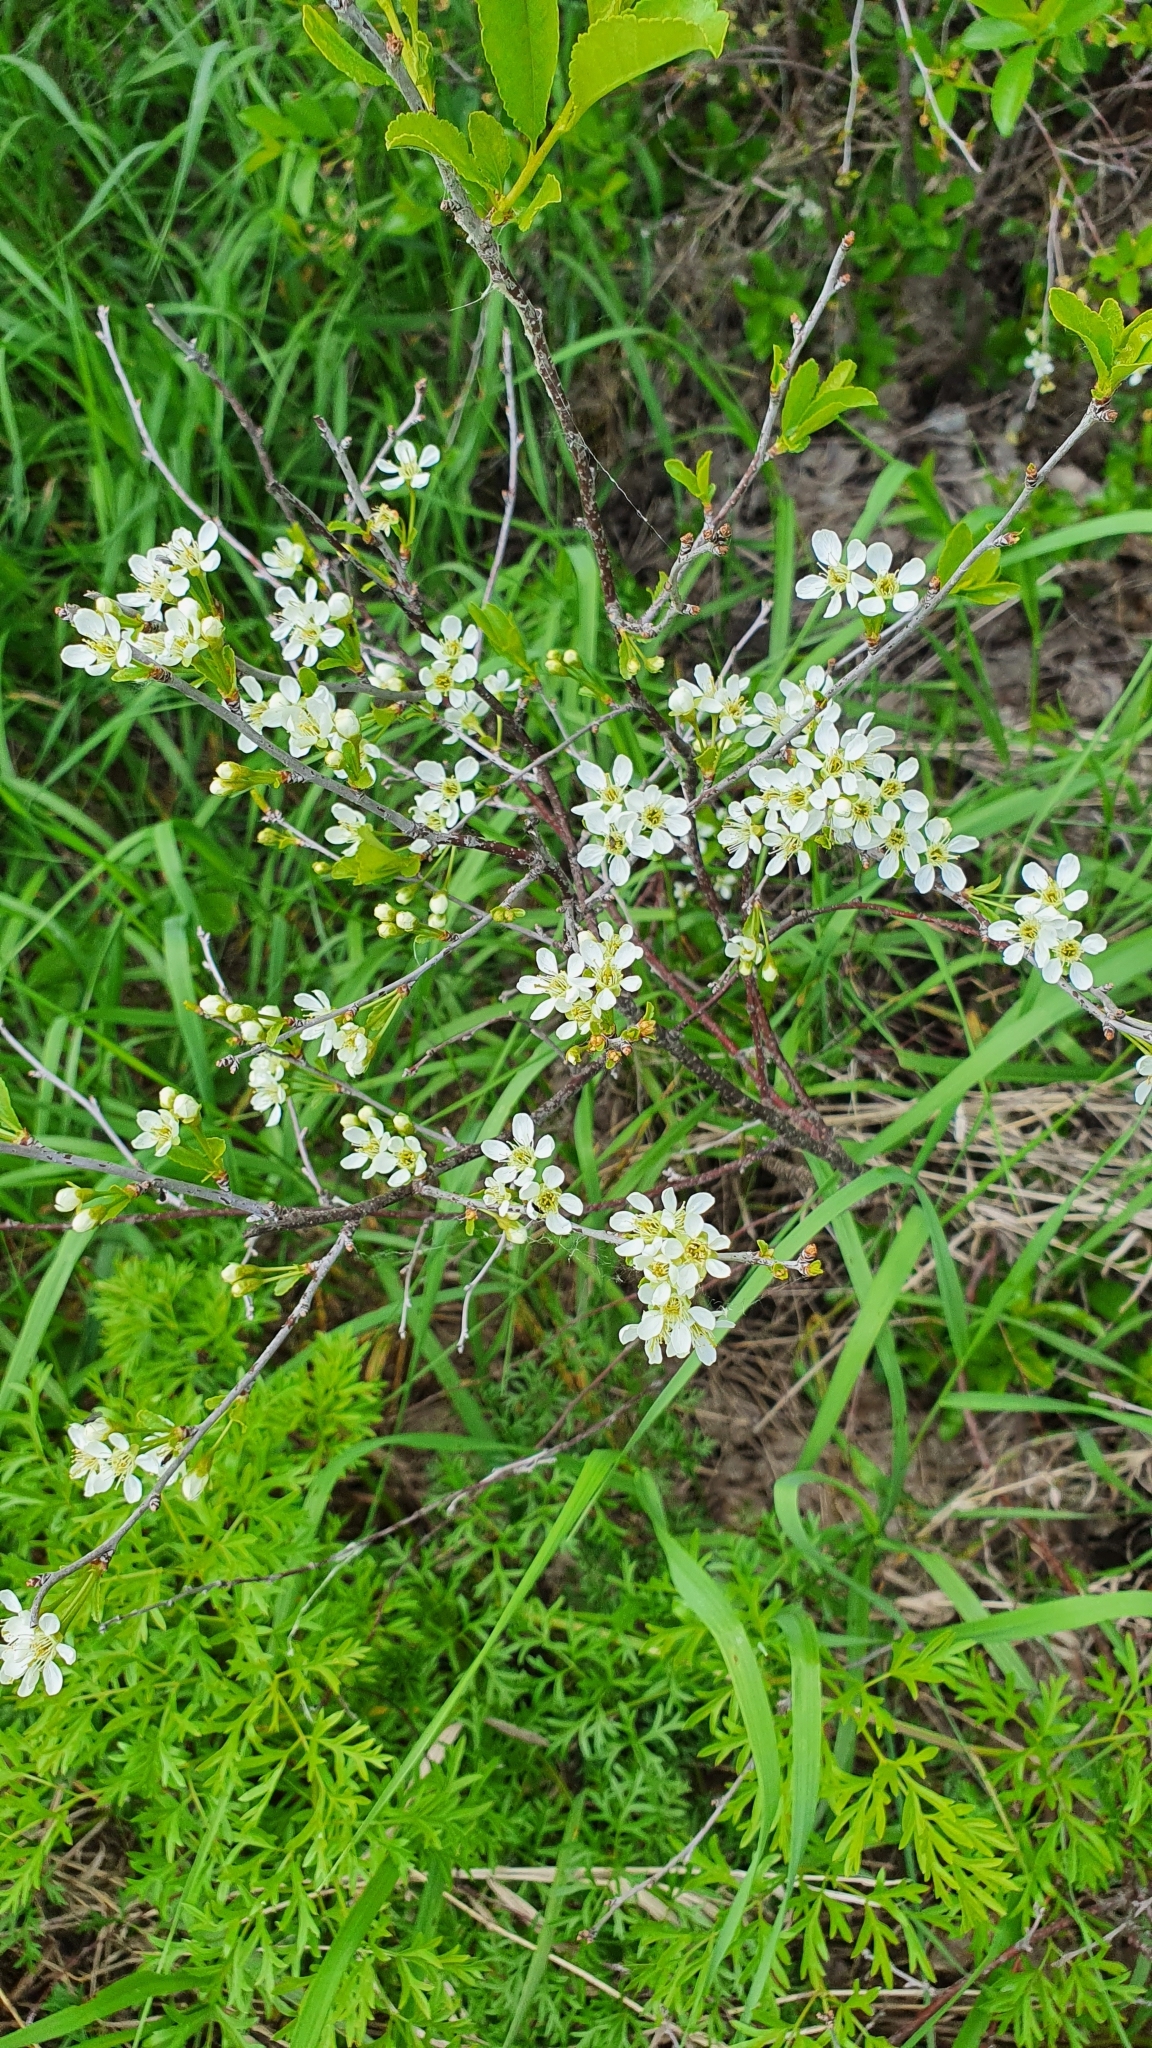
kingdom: Plantae
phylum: Tracheophyta
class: Magnoliopsida
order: Rosales
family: Rosaceae
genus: Prunus
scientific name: Prunus fruticosa
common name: European dwarf cherry
